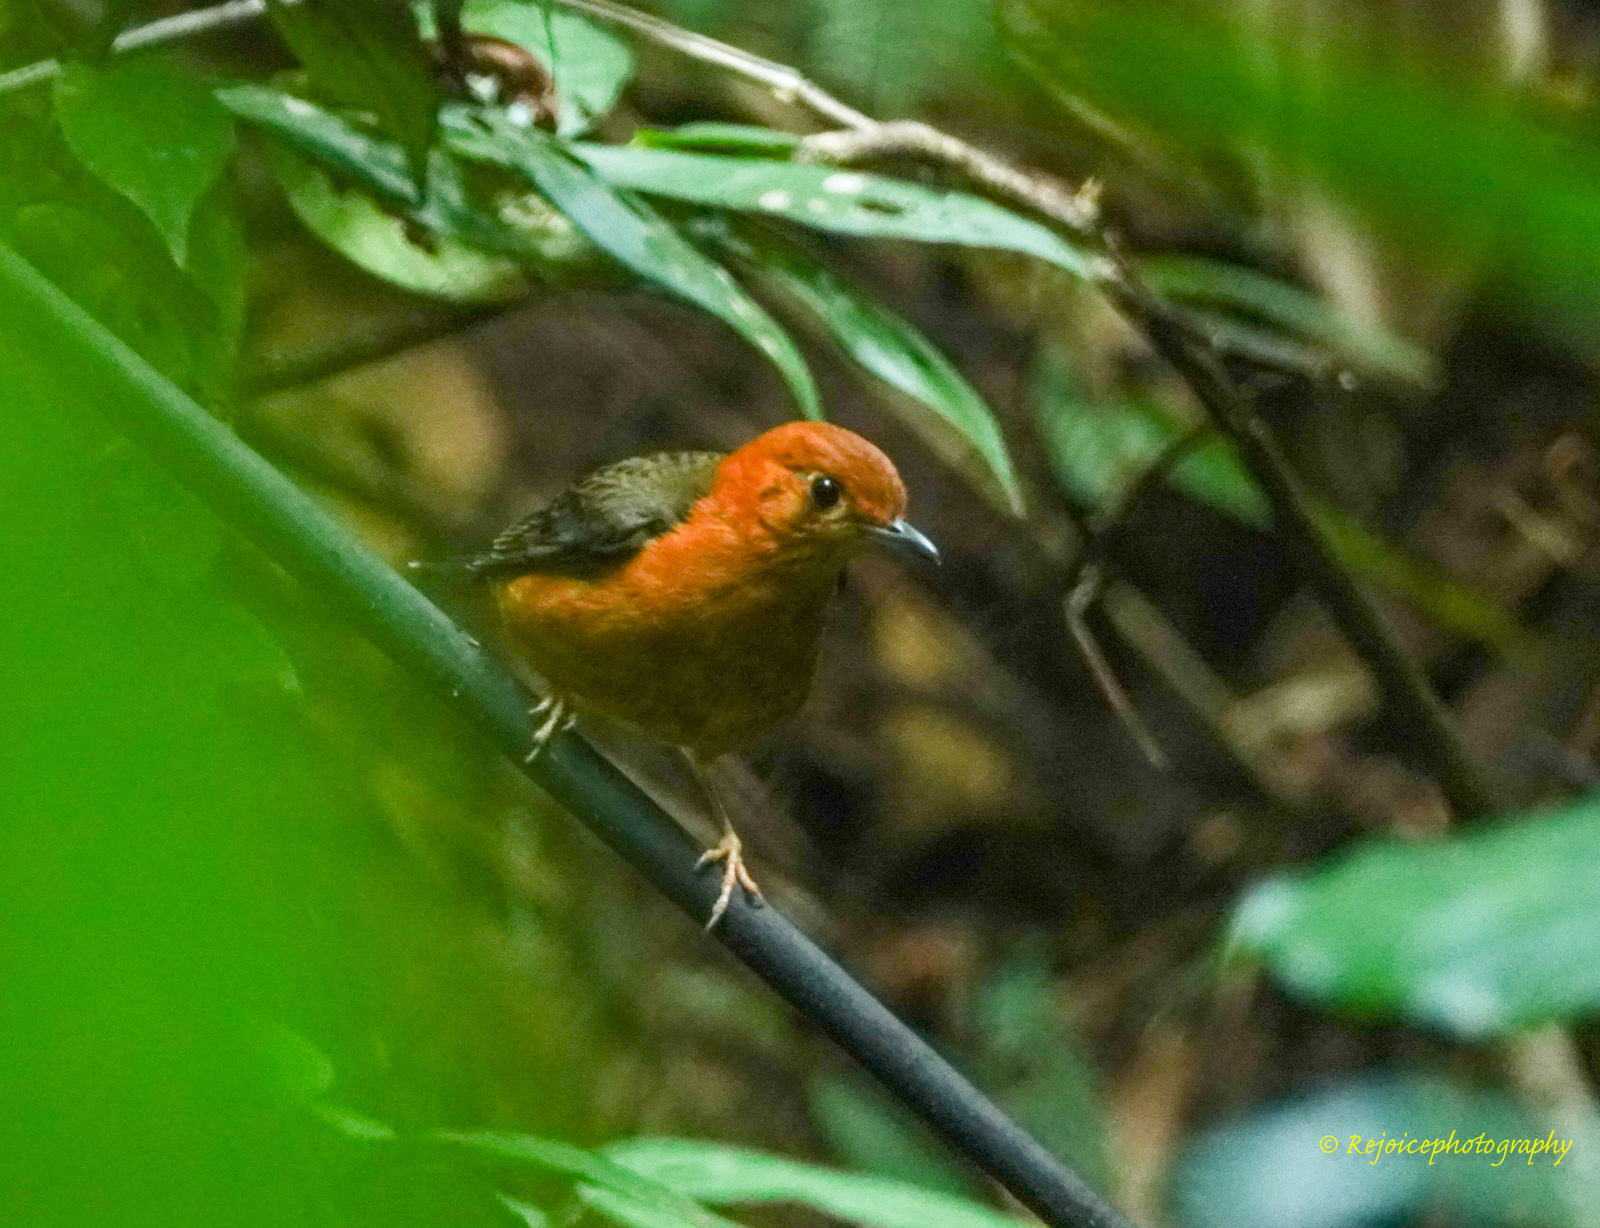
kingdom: Animalia
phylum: Chordata
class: Aves
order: Passeriformes
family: Turdidae
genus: Geokichla
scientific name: Geokichla citrina
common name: Orange-headed thrush
